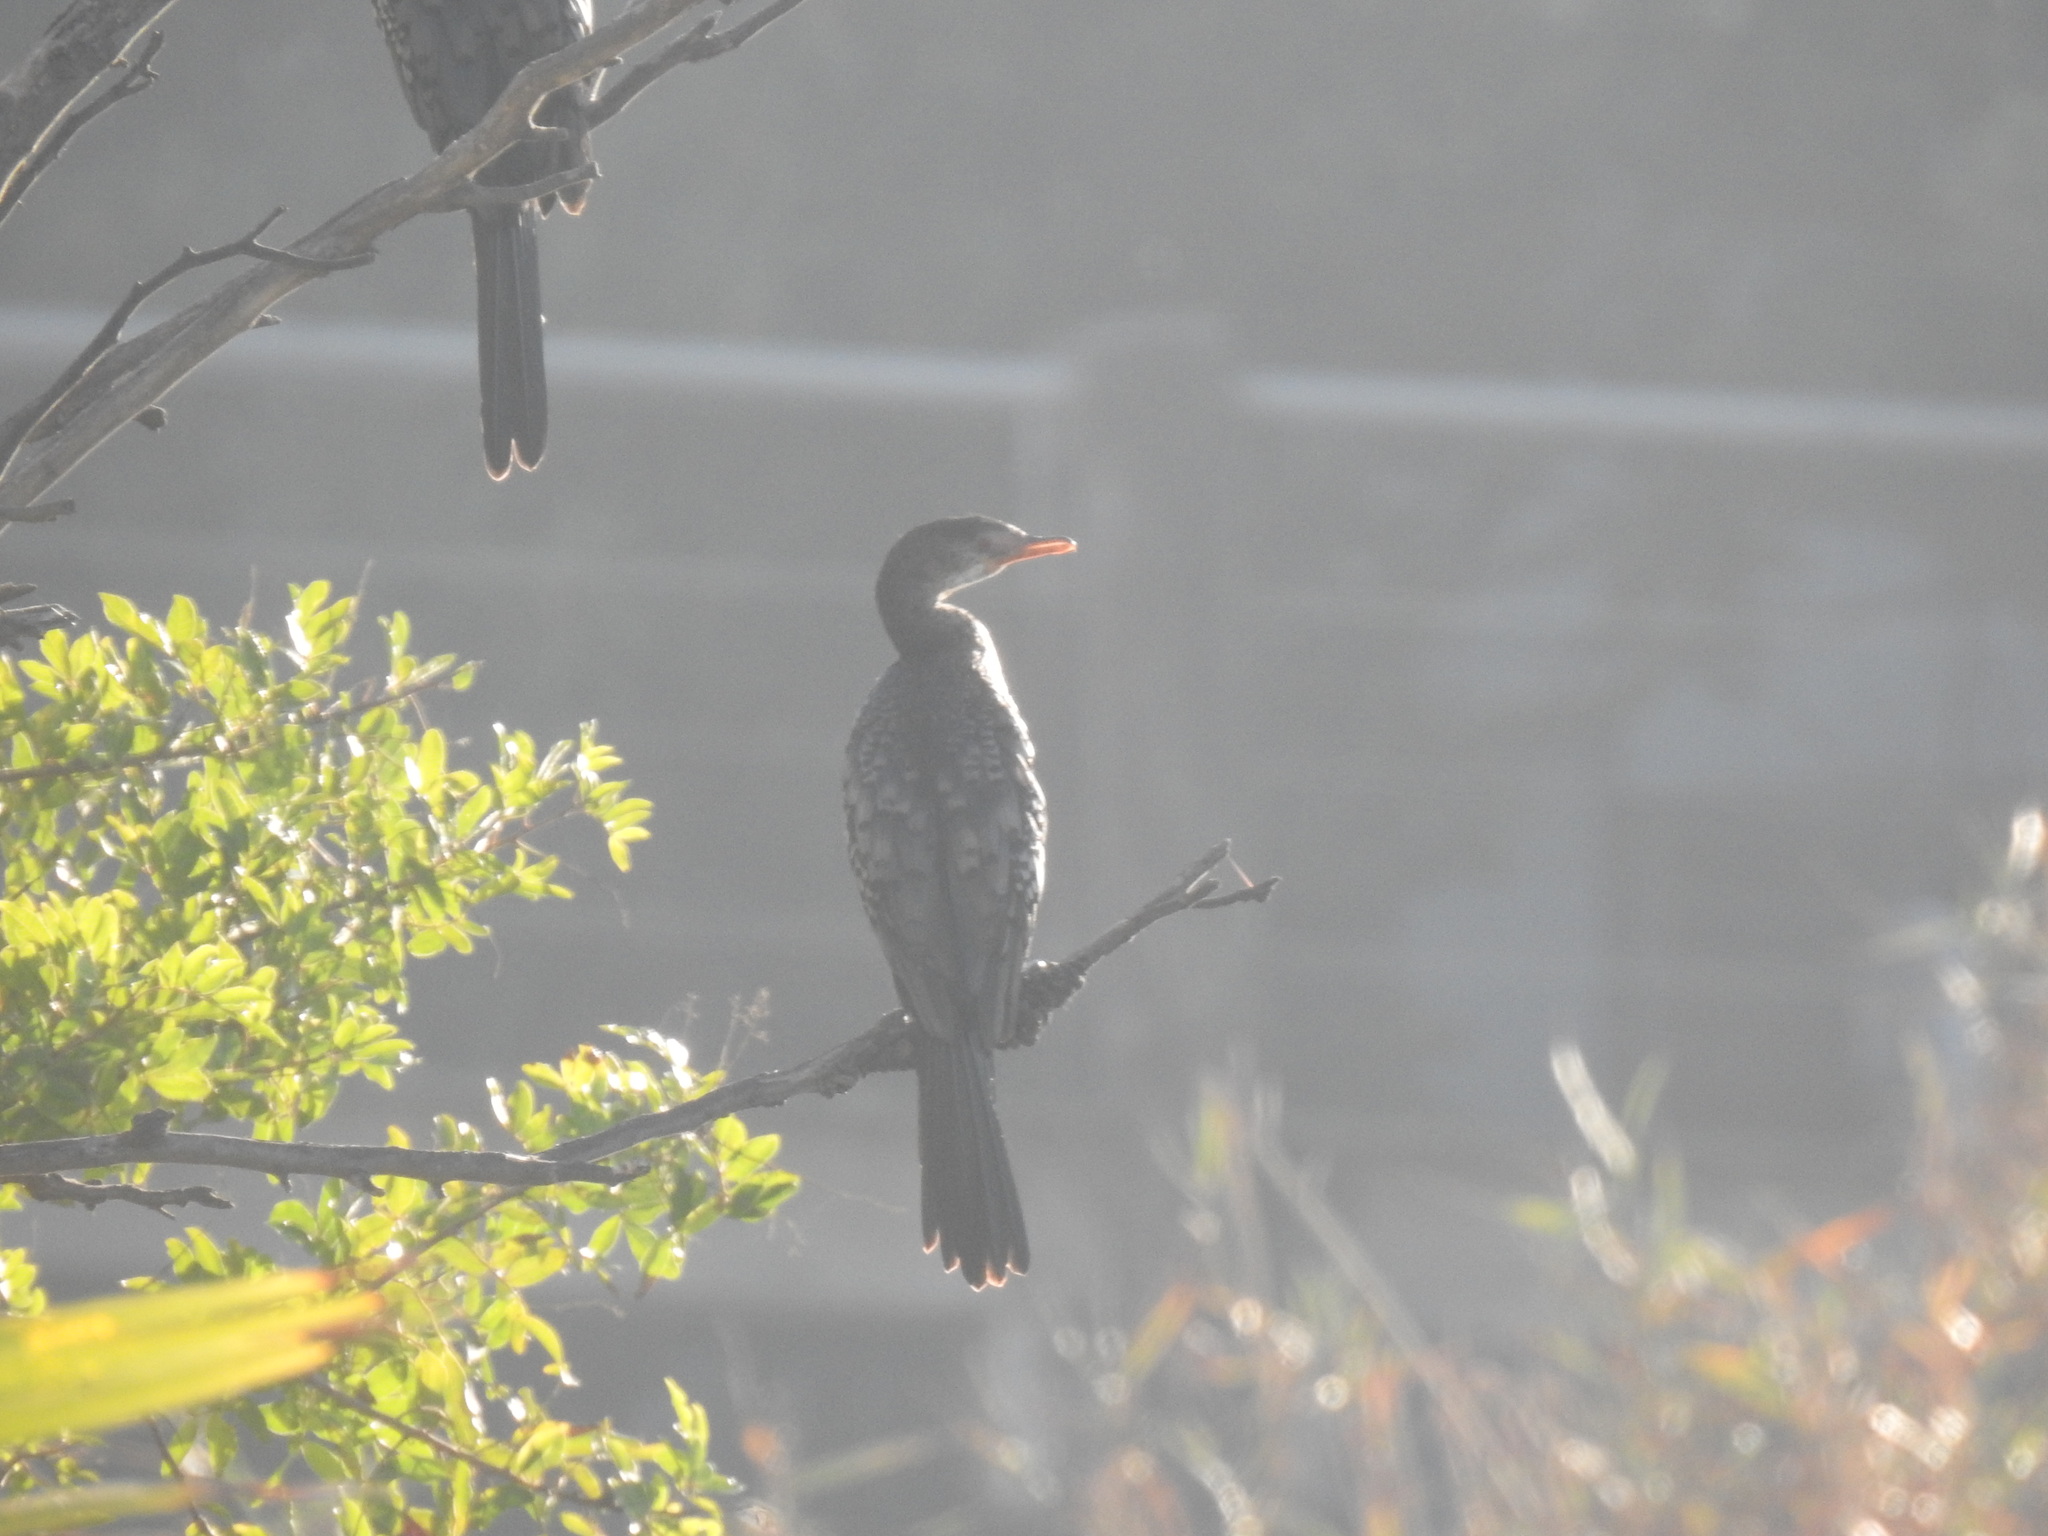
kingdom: Animalia
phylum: Chordata
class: Aves
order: Suliformes
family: Phalacrocoracidae
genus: Microcarbo
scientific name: Microcarbo africanus
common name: Long-tailed cormorant
